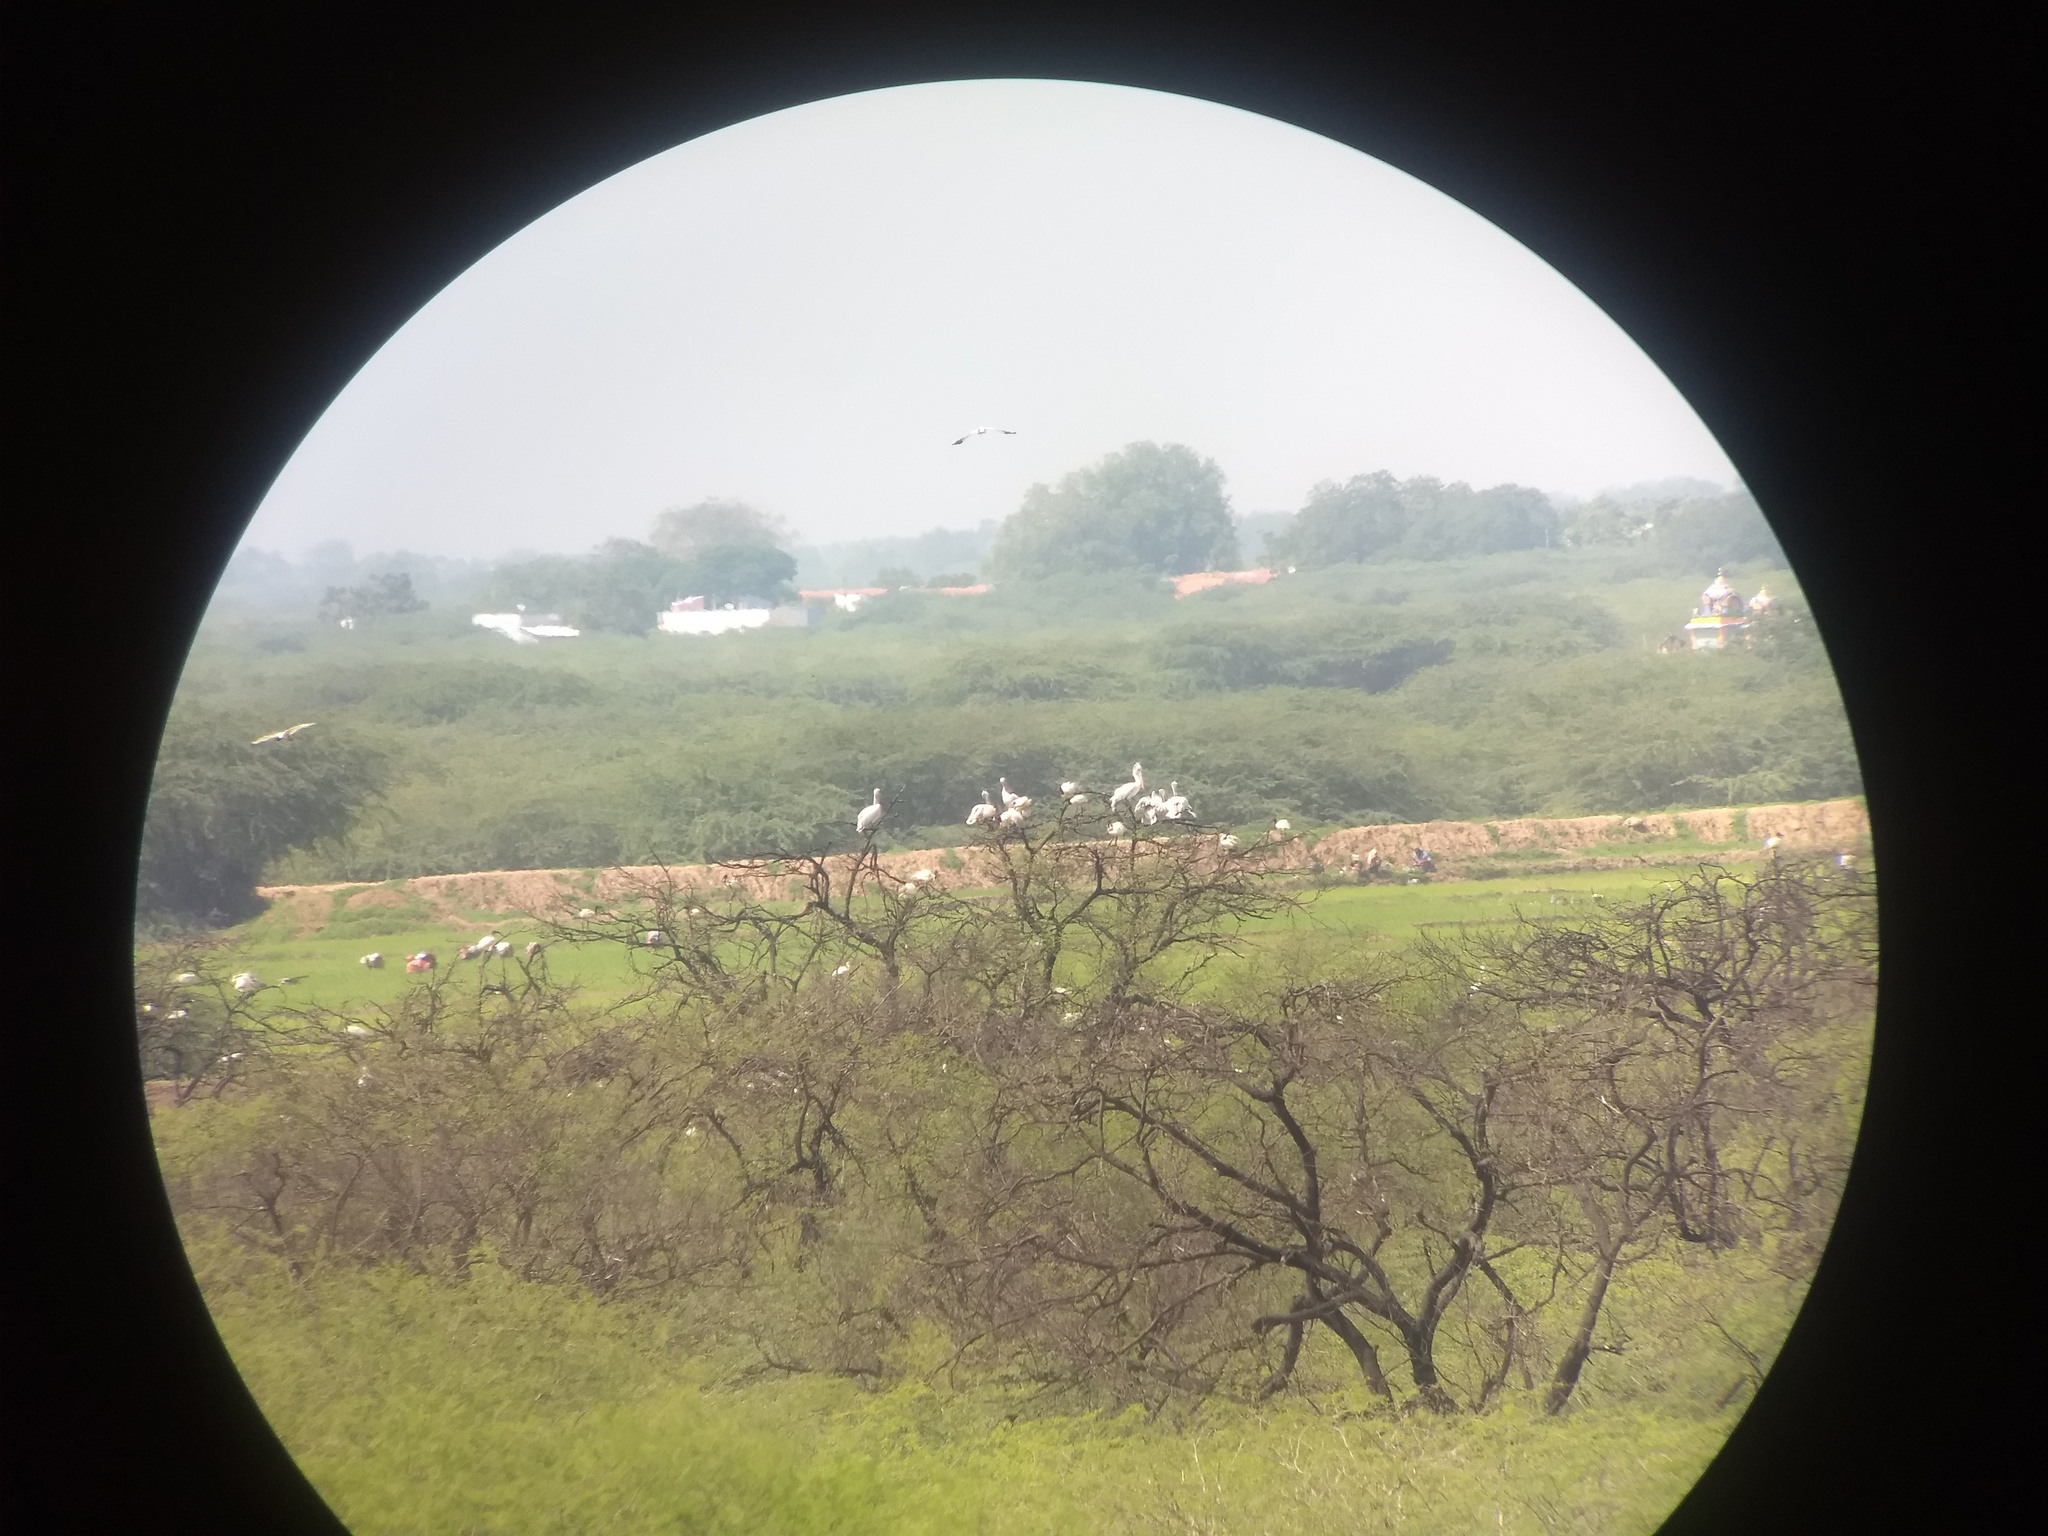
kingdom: Animalia
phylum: Chordata
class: Aves
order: Pelecaniformes
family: Pelecanidae
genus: Pelecanus
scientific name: Pelecanus philippensis
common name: Spot-billed pelican
